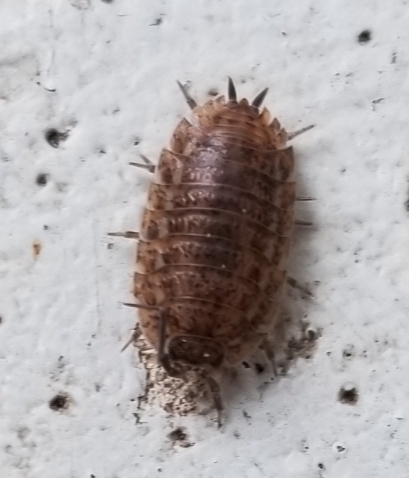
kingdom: Animalia
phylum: Arthropoda
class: Malacostraca
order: Isopoda
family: Trachelipodidae
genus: Trachelipus
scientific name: Trachelipus rathkii
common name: Isopod
